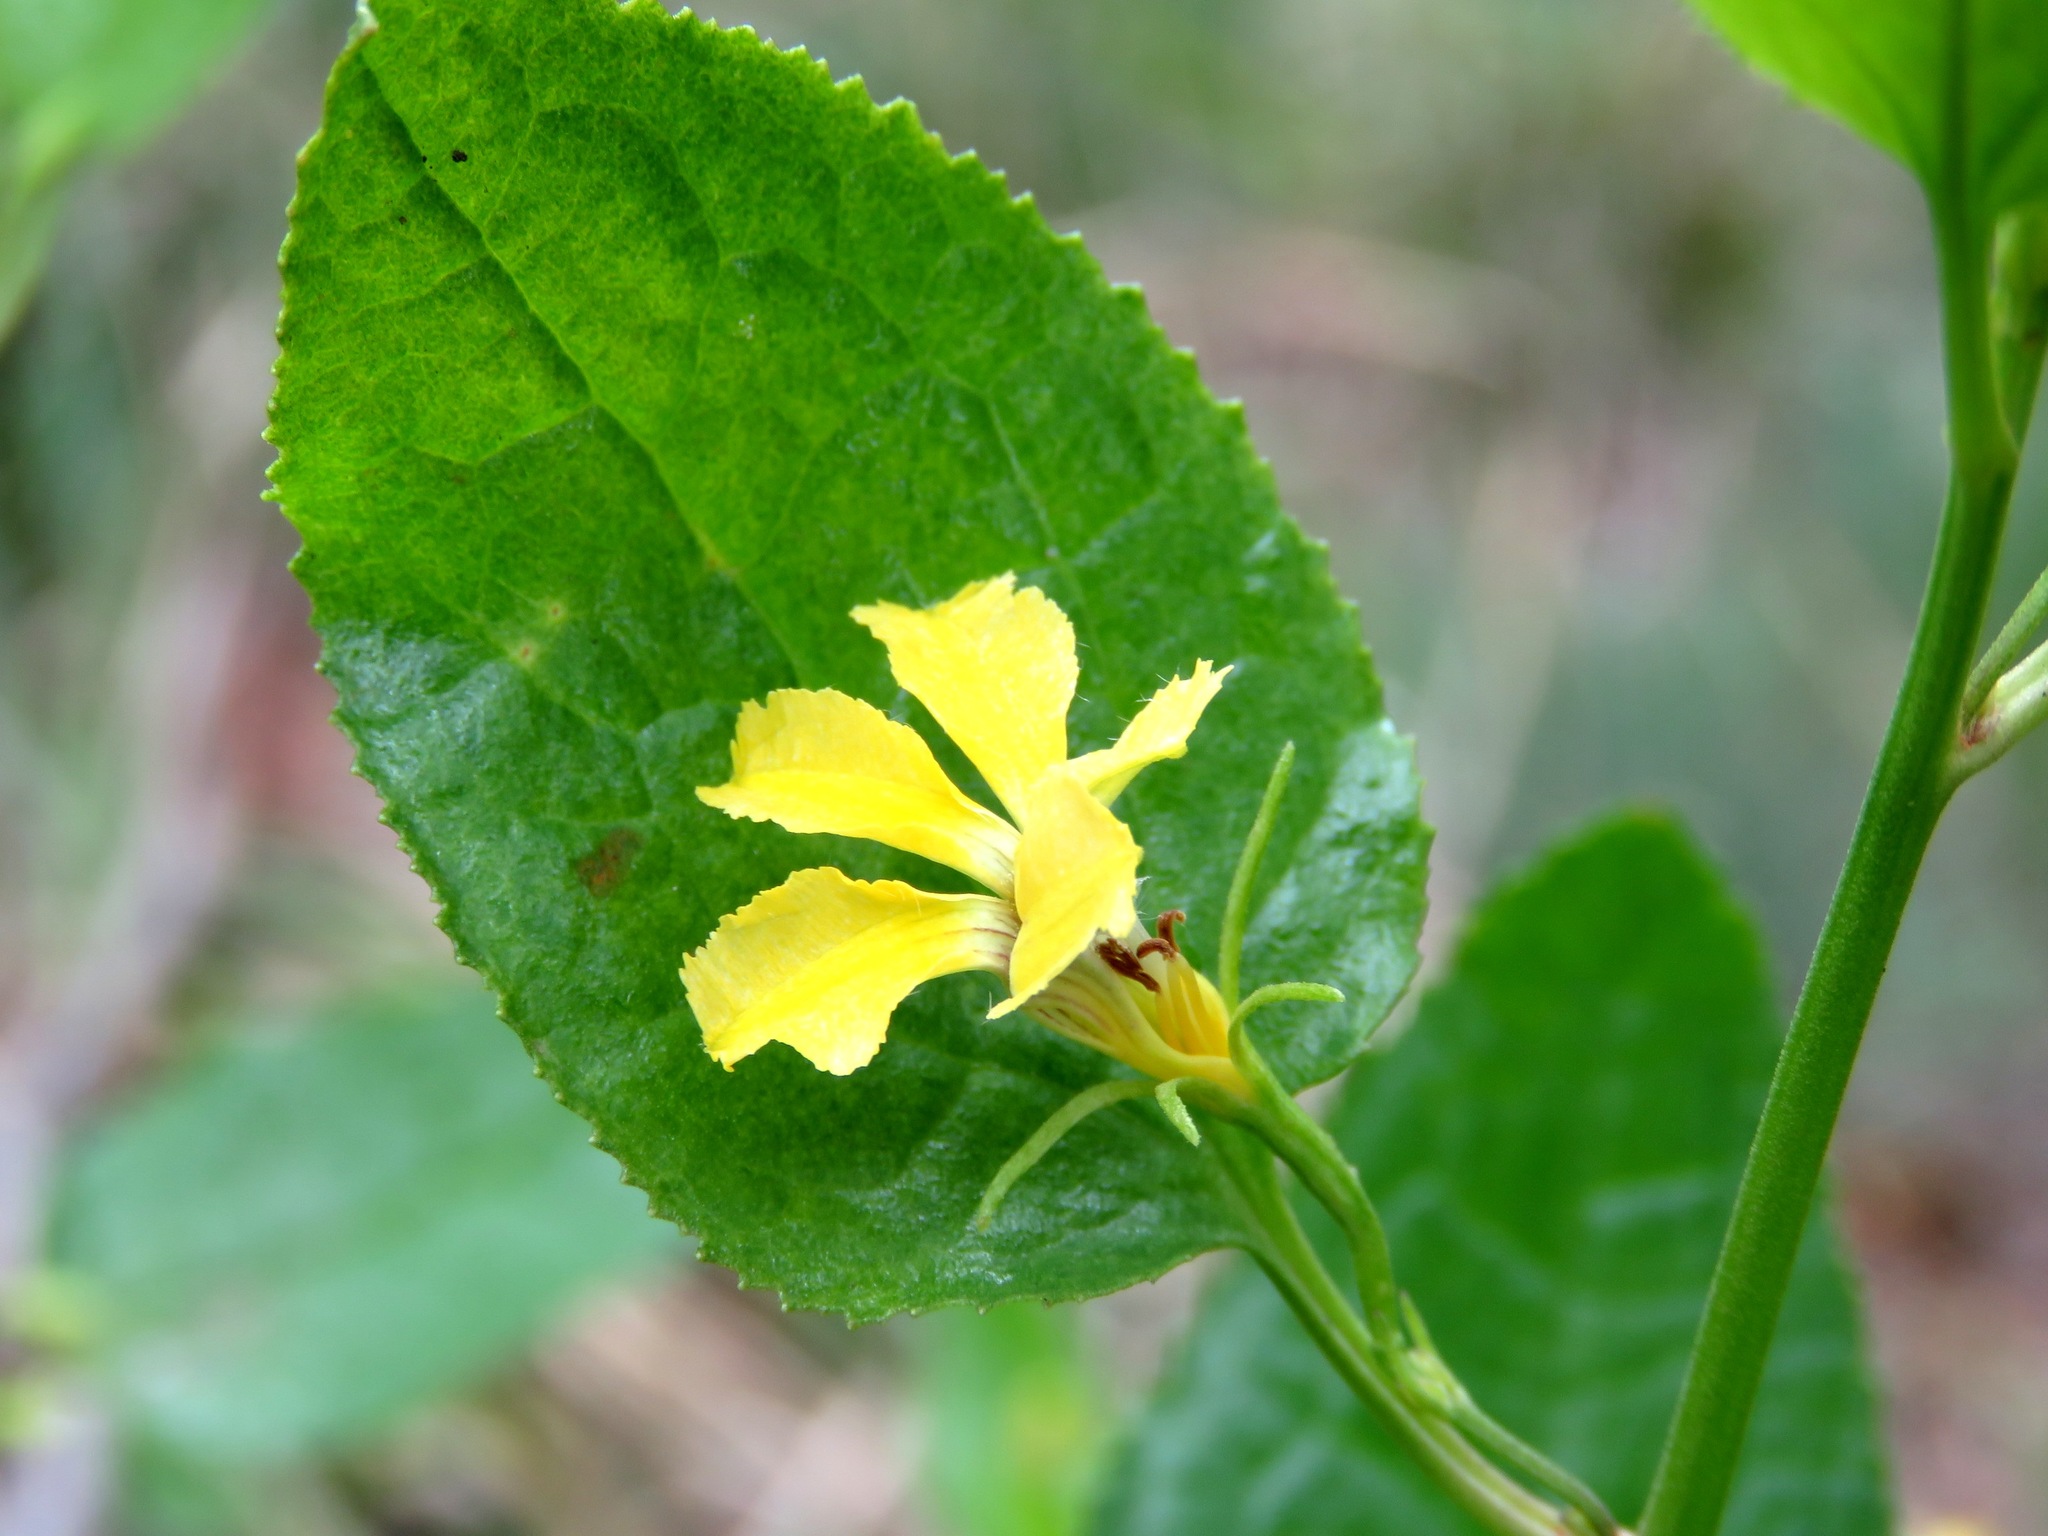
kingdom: Plantae
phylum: Tracheophyta
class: Magnoliopsida
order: Asterales
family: Goodeniaceae
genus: Goodenia
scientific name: Goodenia ovata
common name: Hop goodenia
